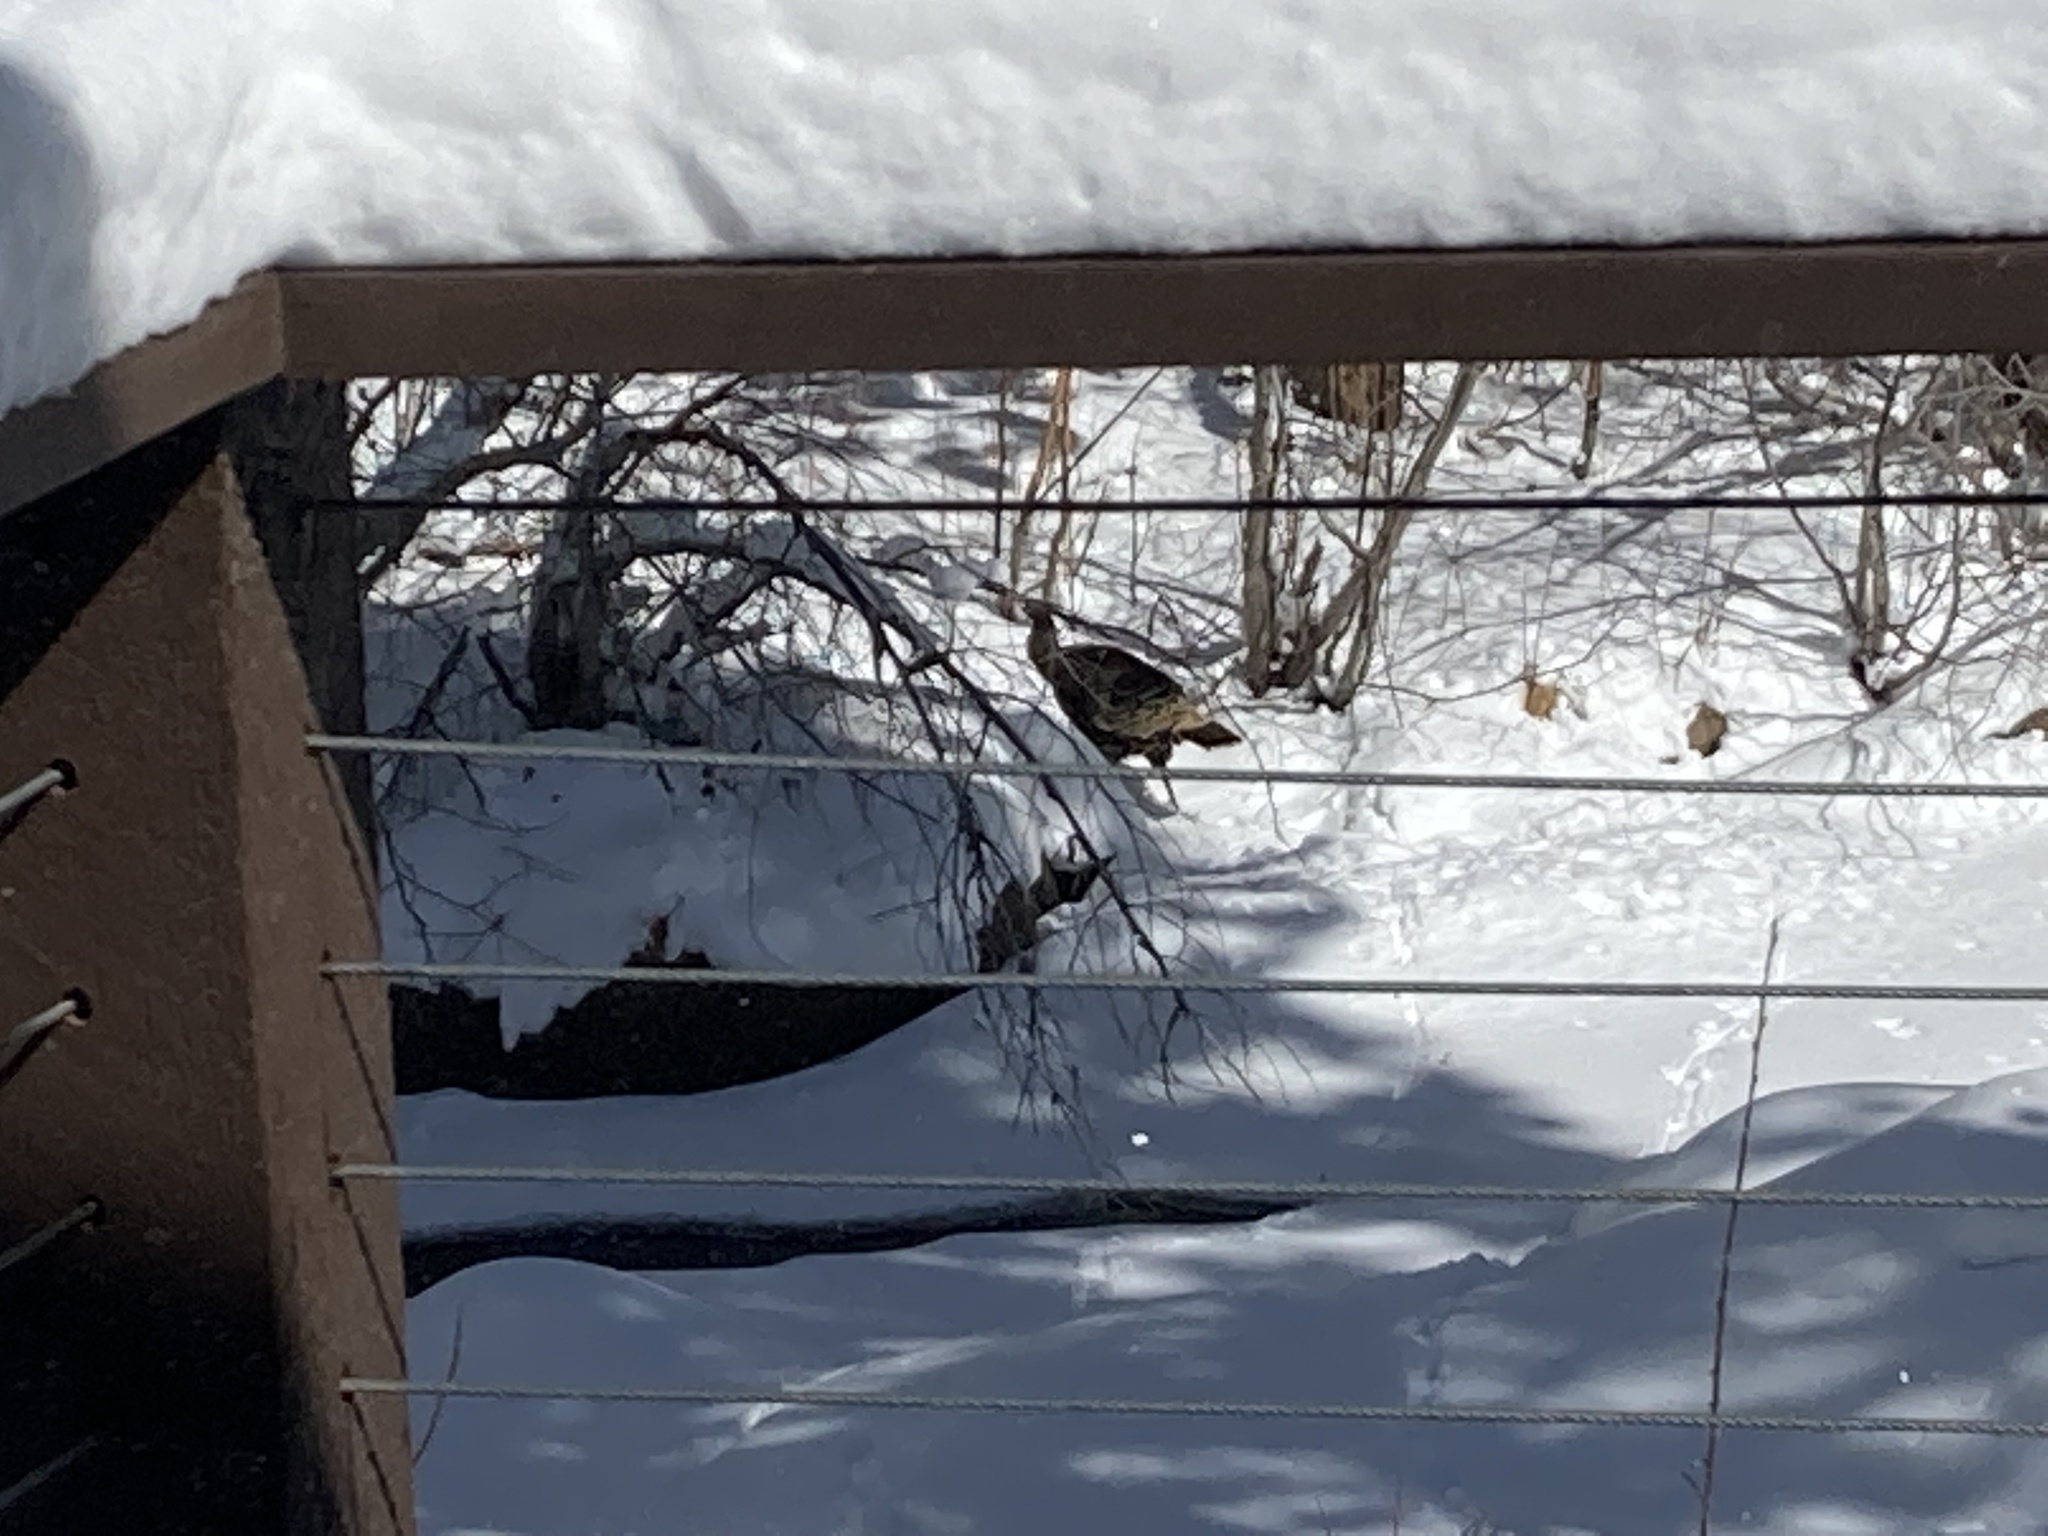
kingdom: Animalia
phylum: Chordata
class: Aves
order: Galliformes
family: Phasianidae
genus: Meleagris
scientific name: Meleagris gallopavo
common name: Wild turkey
